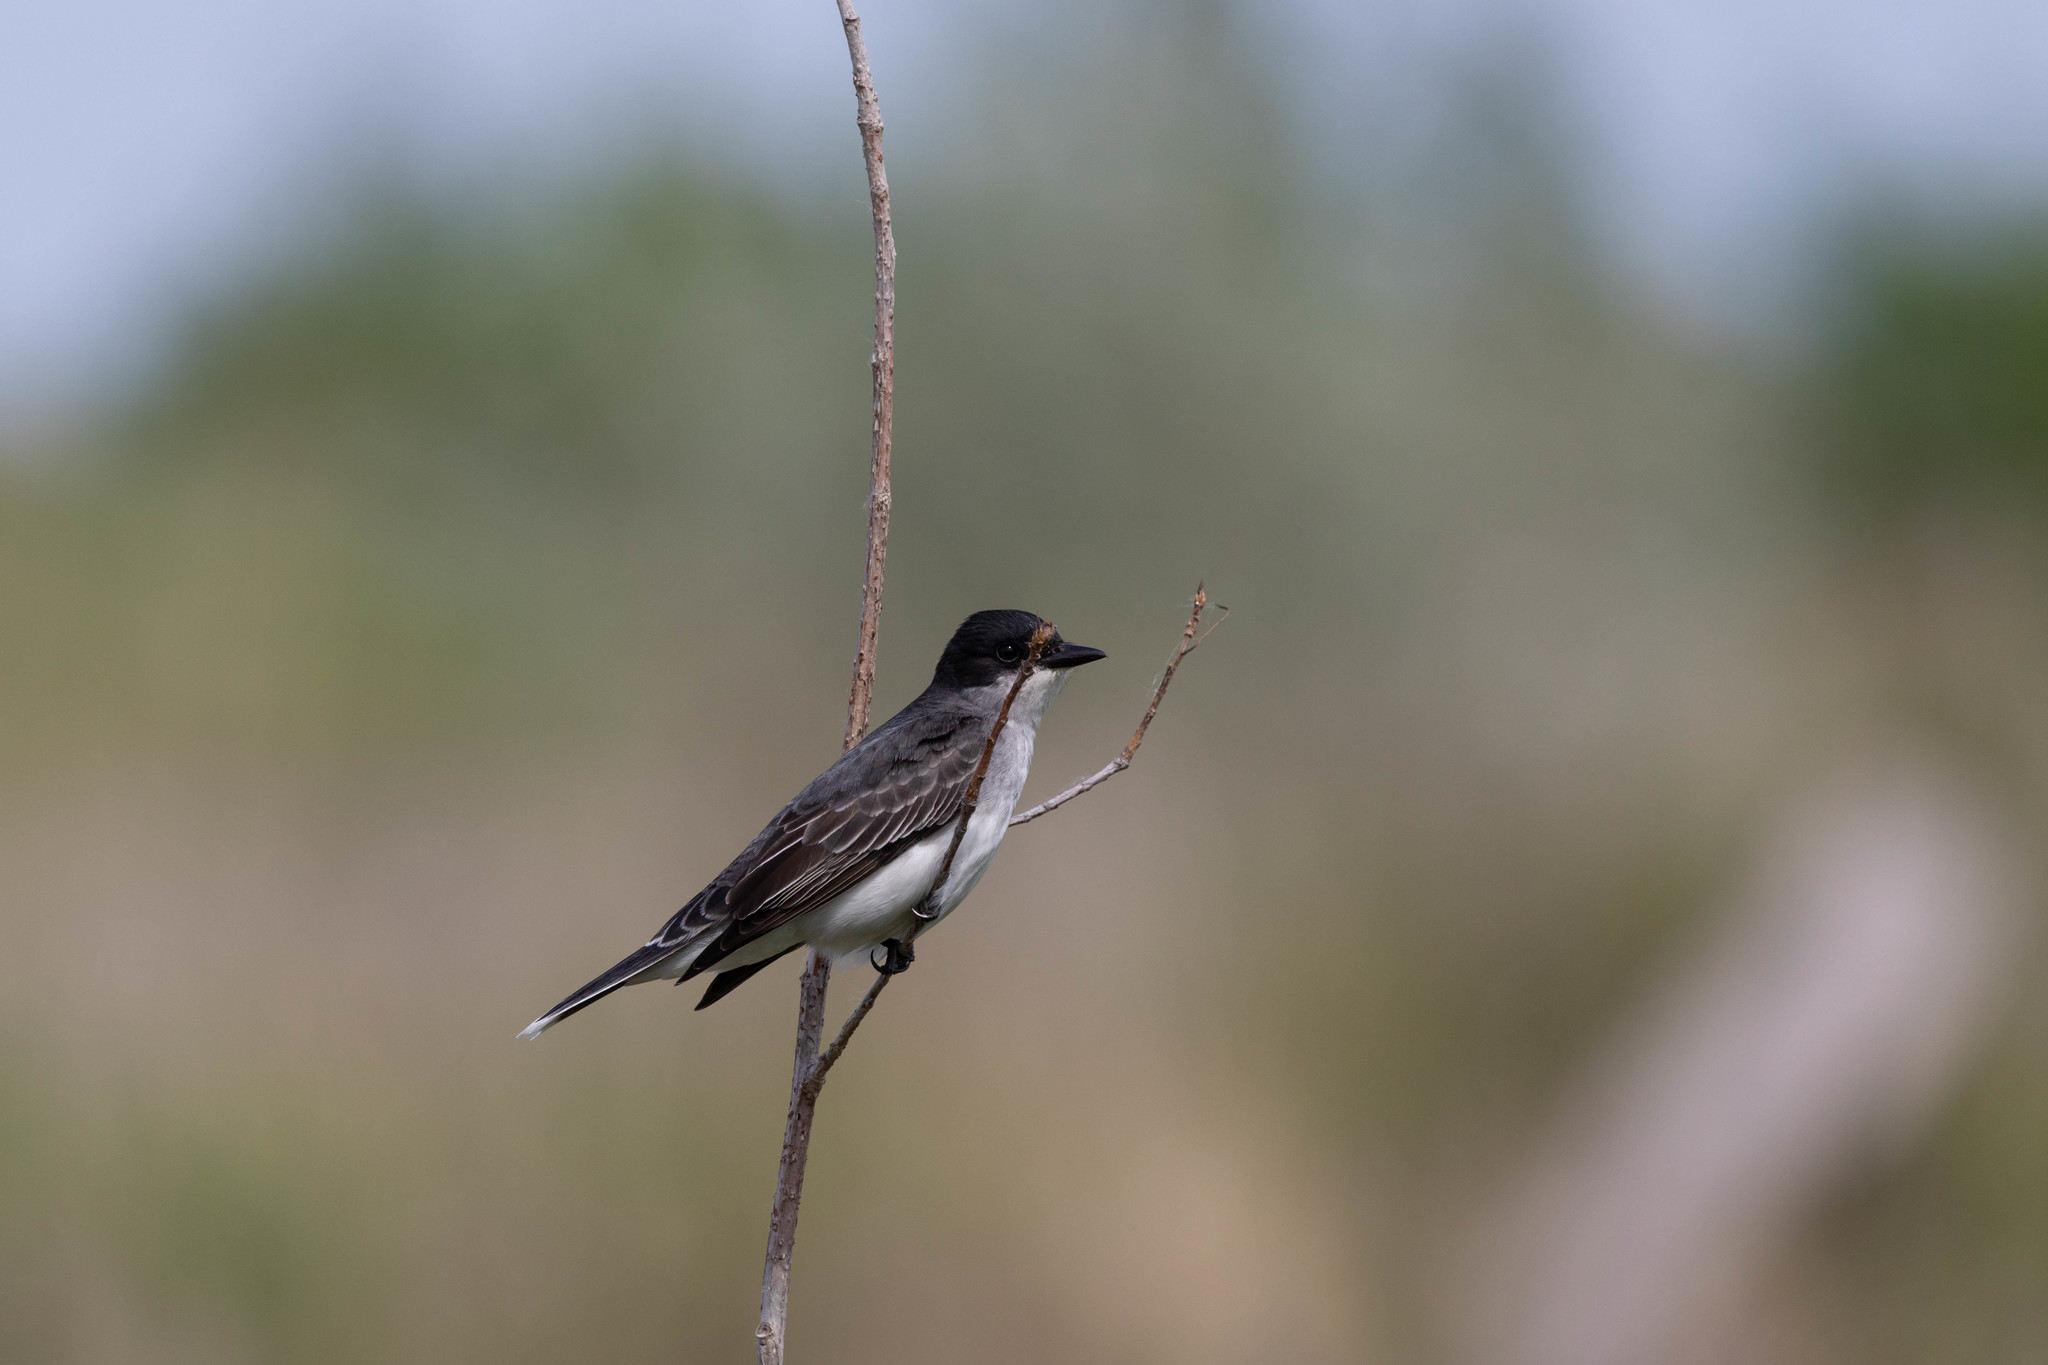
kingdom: Animalia
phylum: Chordata
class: Aves
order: Passeriformes
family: Tyrannidae
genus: Tyrannus
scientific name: Tyrannus tyrannus
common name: Eastern kingbird
